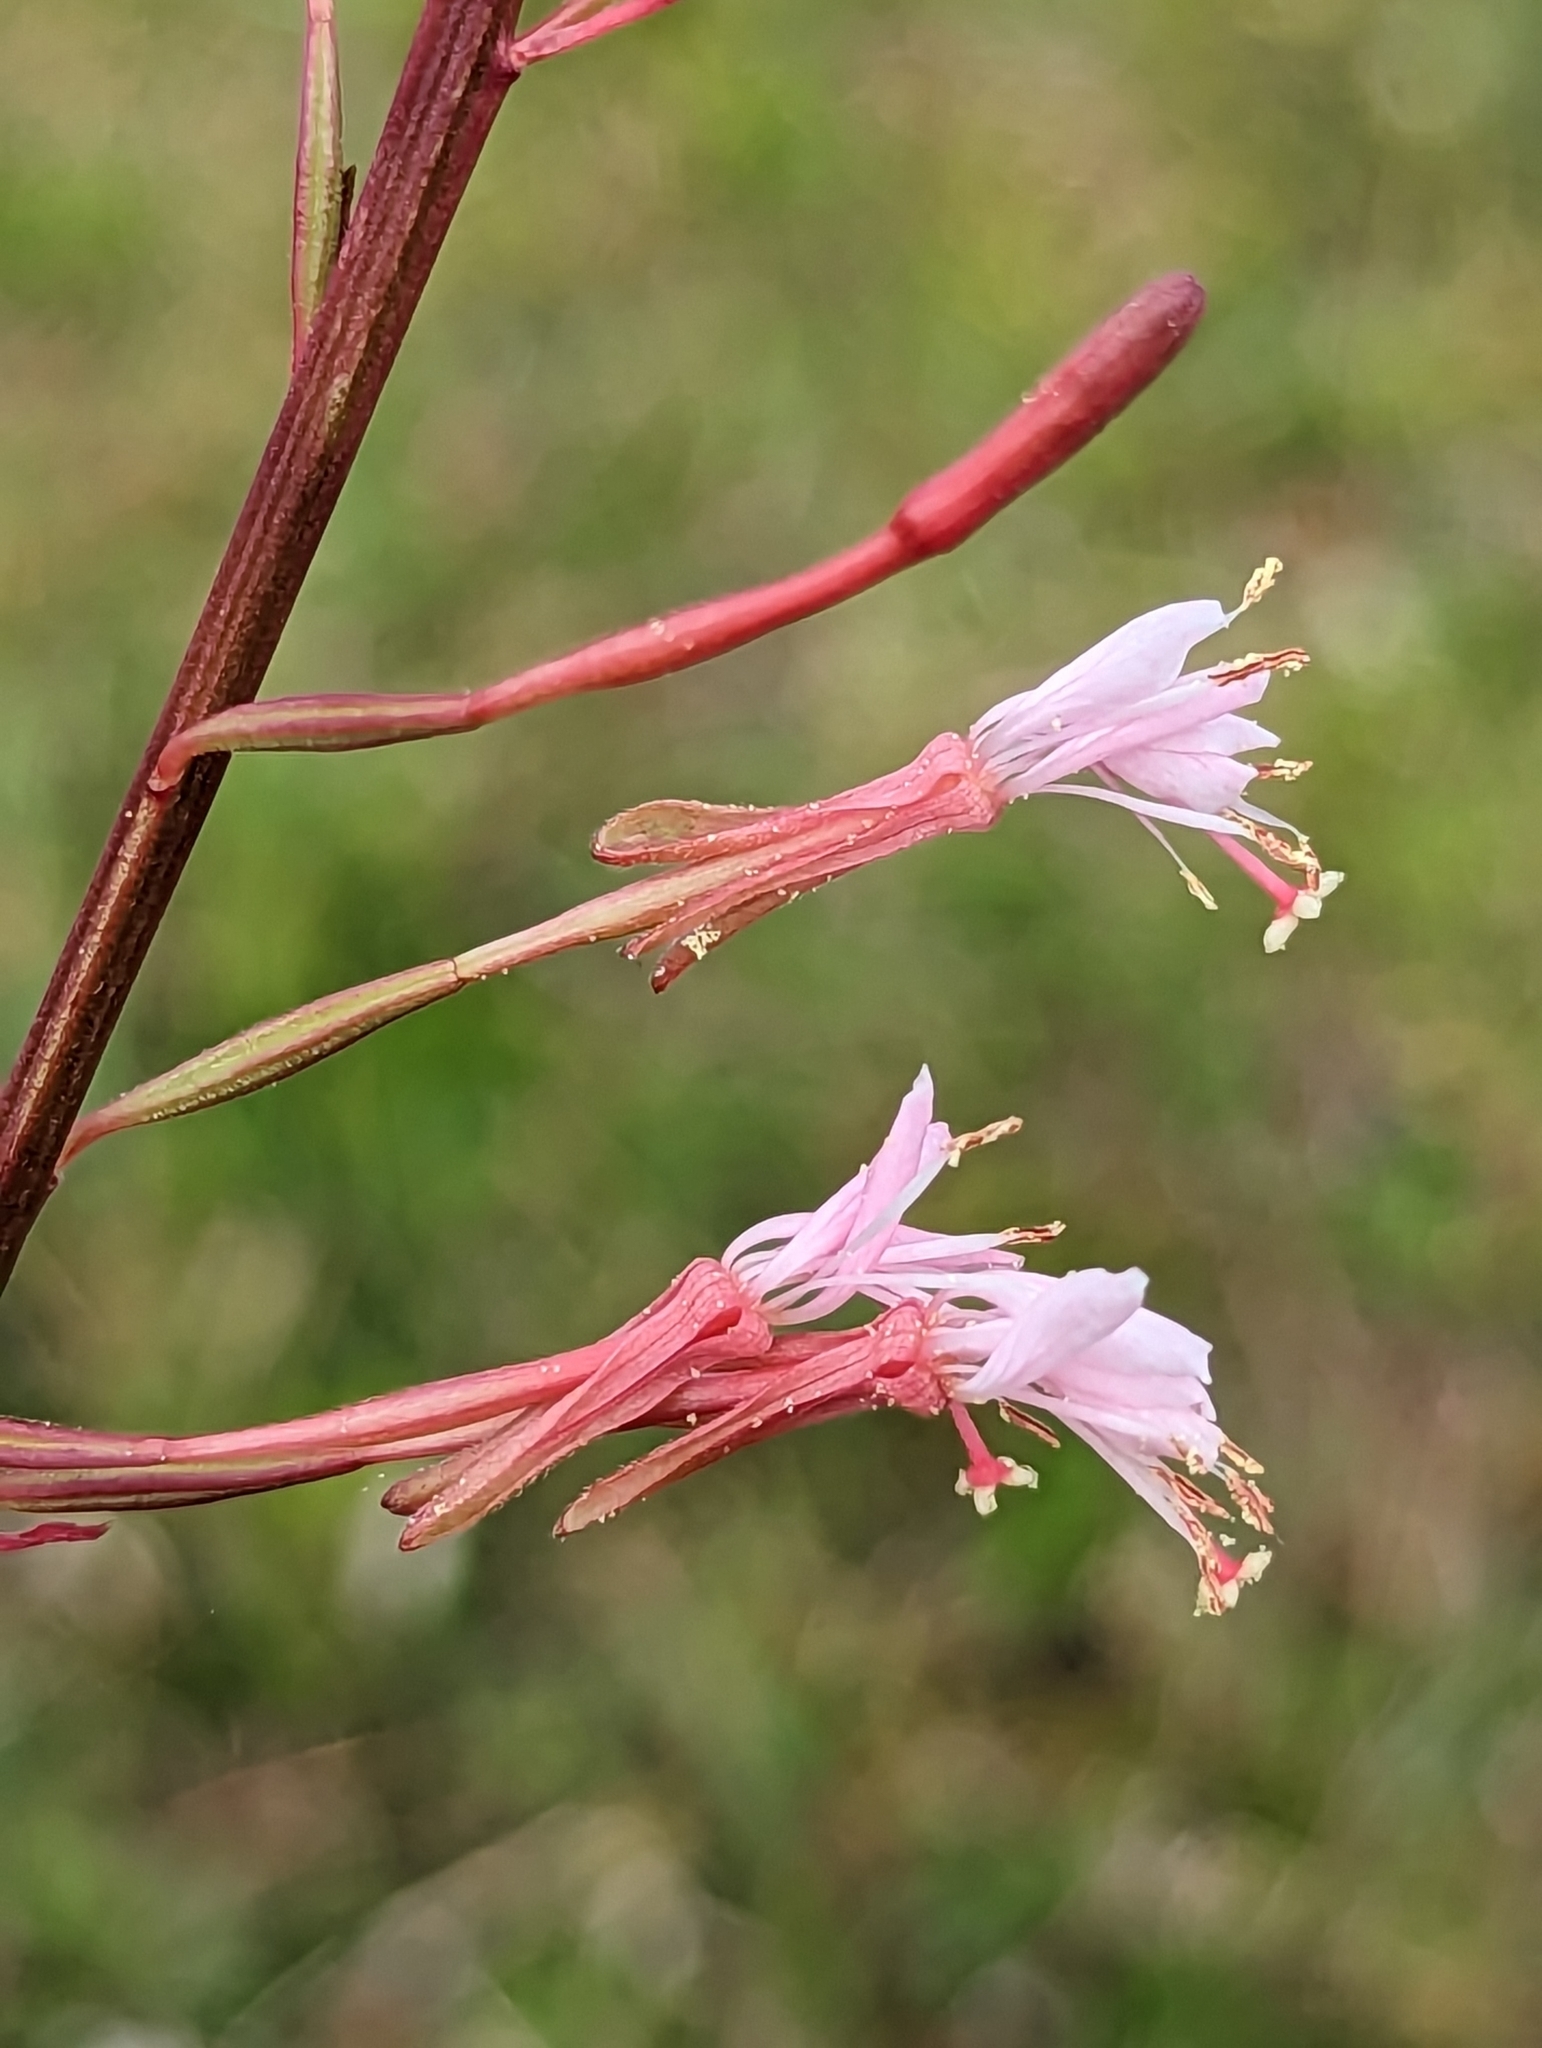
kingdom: Plantae
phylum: Tracheophyta
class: Magnoliopsida
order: Myrtales
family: Onagraceae
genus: Oenothera
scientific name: Oenothera simulans
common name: Southern beeblossom
